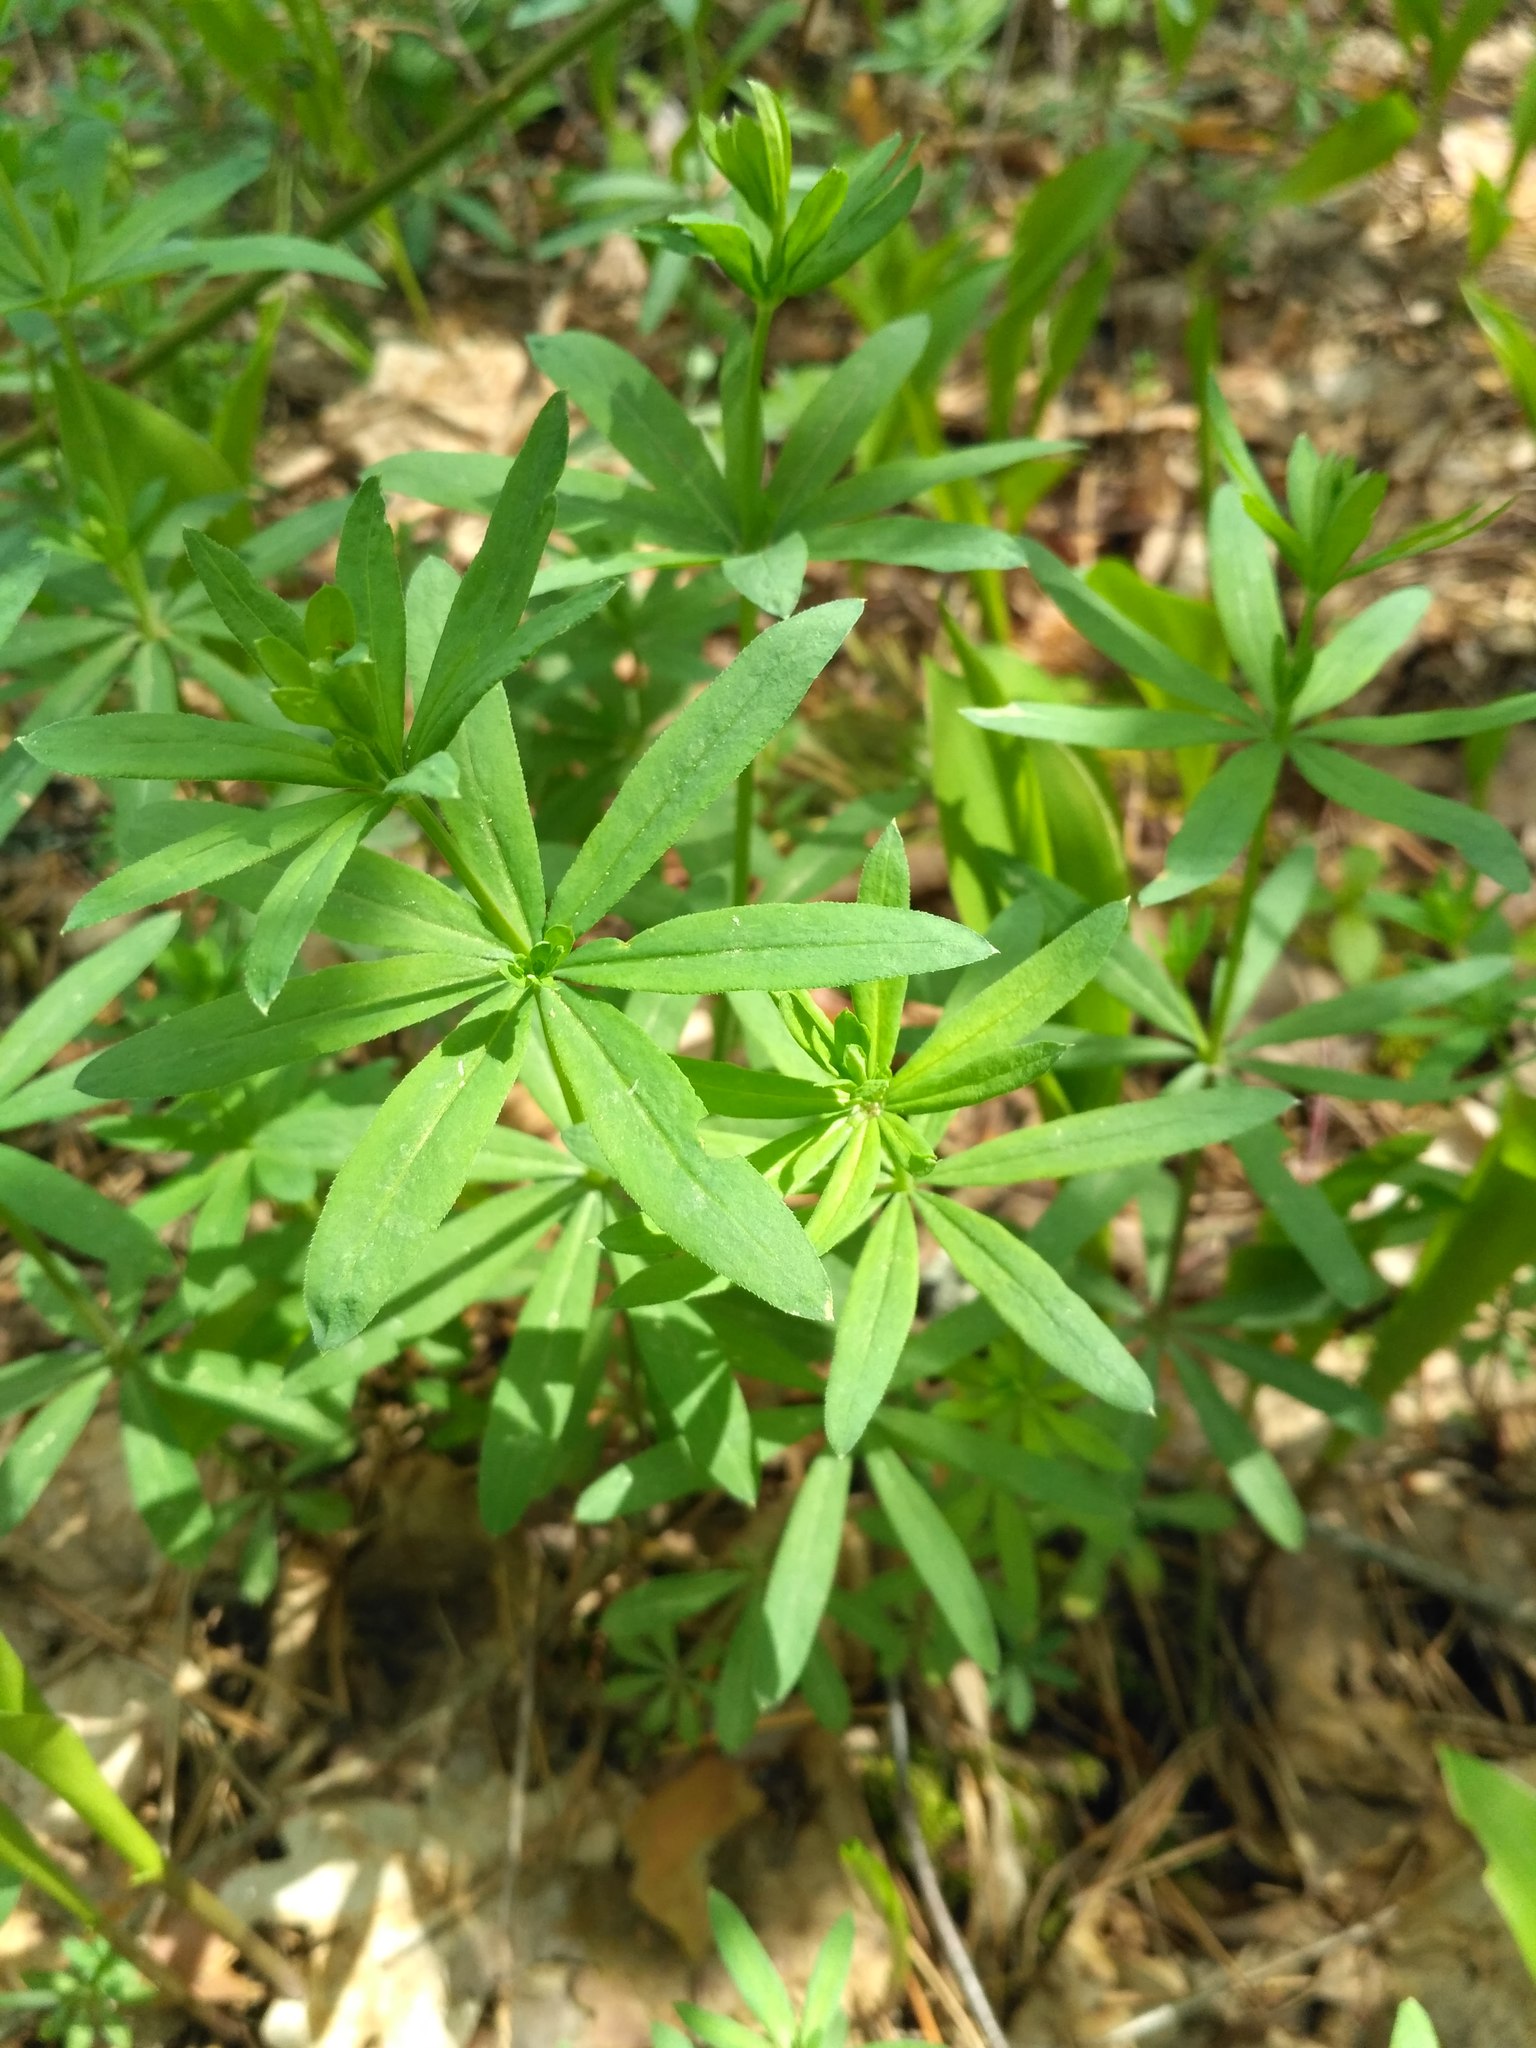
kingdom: Plantae
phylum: Tracheophyta
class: Magnoliopsida
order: Gentianales
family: Rubiaceae
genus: Galium
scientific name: Galium intermedium
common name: Bedstraw
